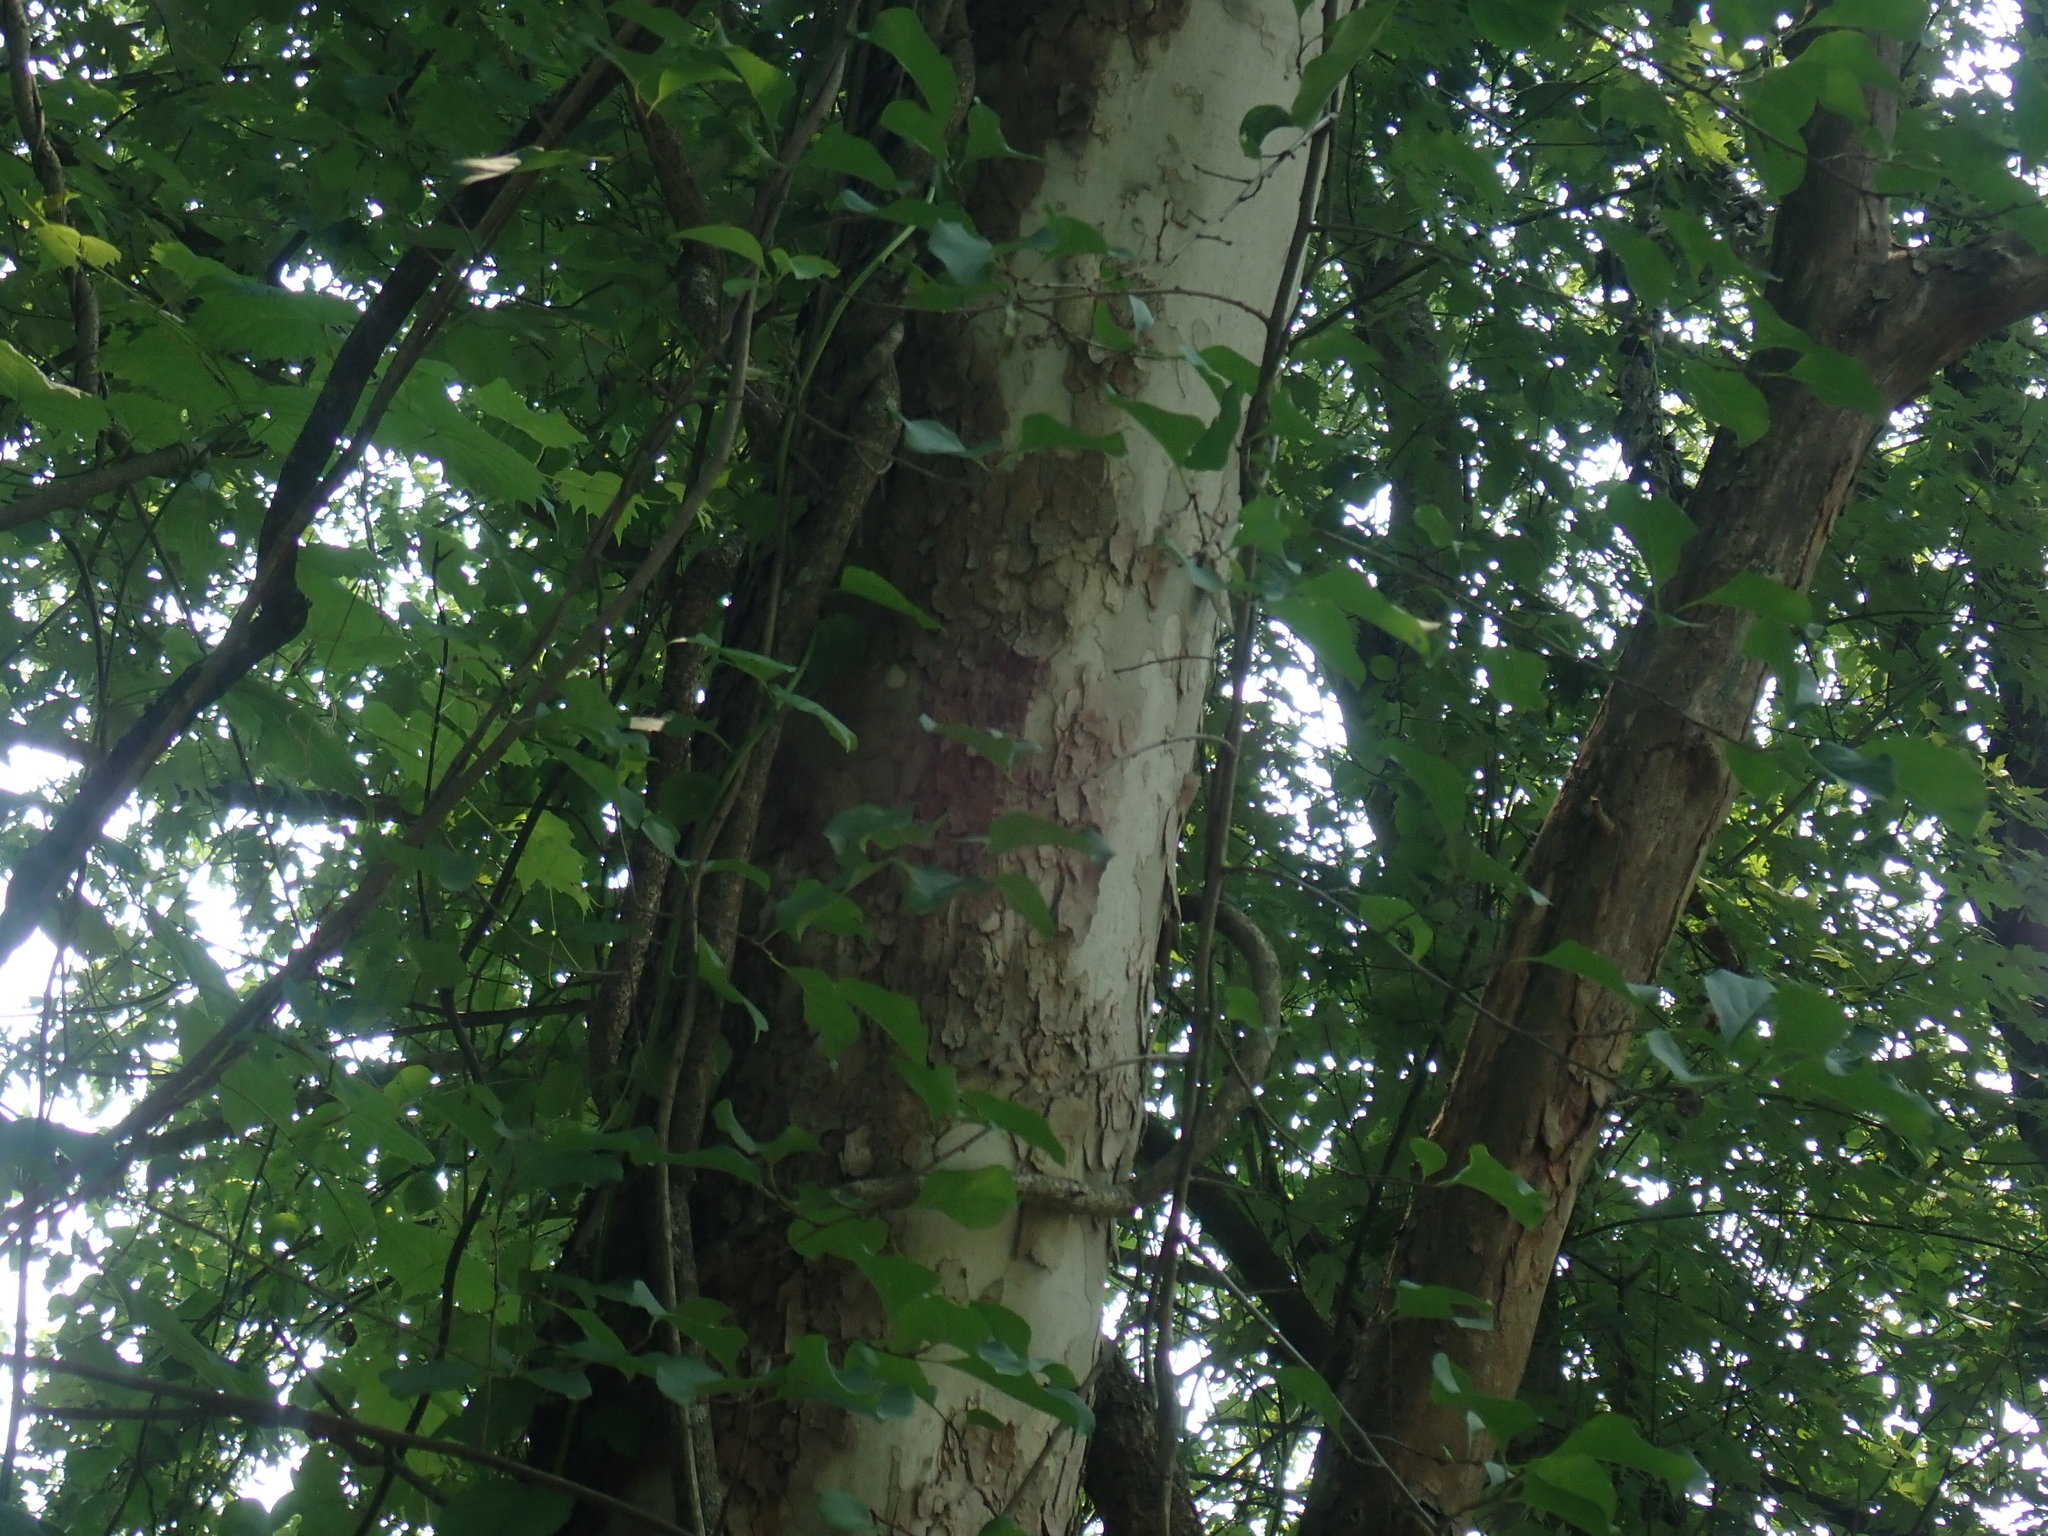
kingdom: Plantae
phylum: Tracheophyta
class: Magnoliopsida
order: Proteales
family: Platanaceae
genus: Platanus
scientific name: Platanus occidentalis
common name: American sycamore
